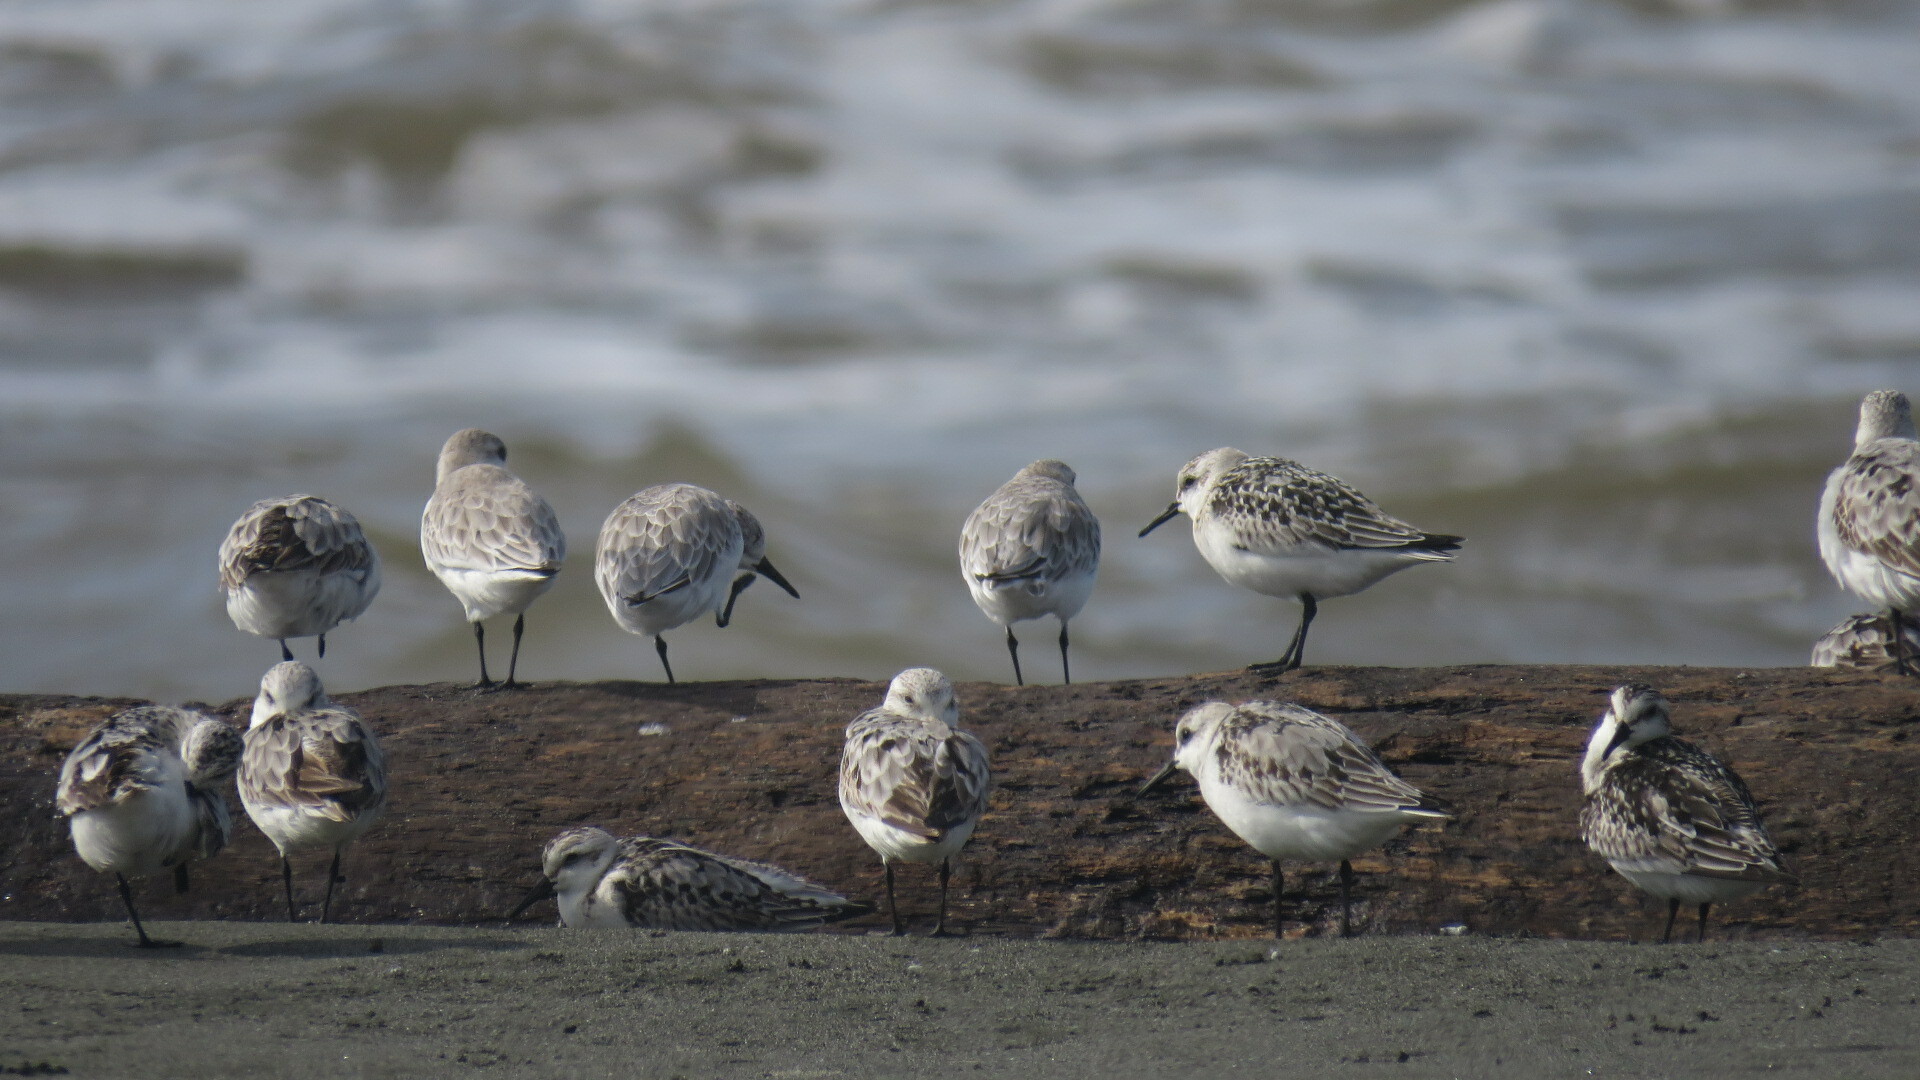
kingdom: Animalia
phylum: Chordata
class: Aves
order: Charadriiformes
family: Scolopacidae
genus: Calidris
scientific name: Calidris alba
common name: Sanderling
